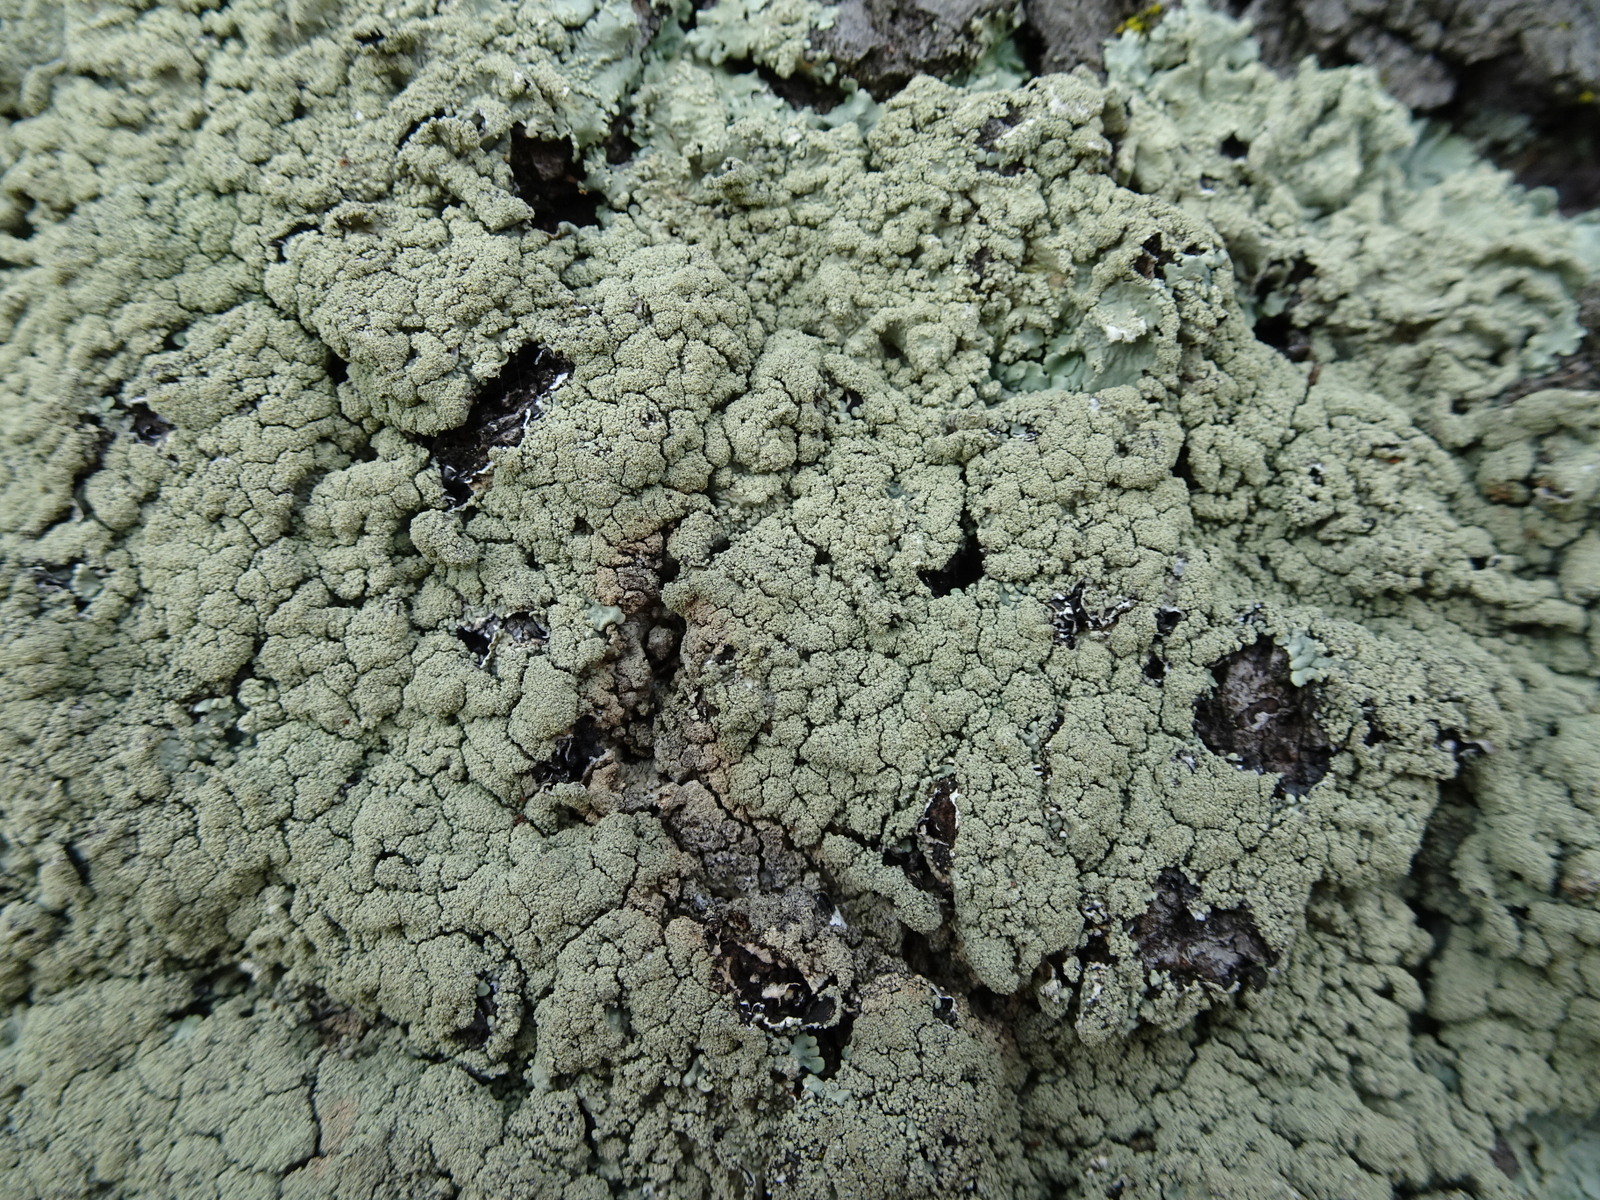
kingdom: Fungi
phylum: Ascomycota
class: Lecanoromycetes
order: Lecanorales
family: Parmeliaceae
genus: Flavoparmelia
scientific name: Flavoparmelia caperata
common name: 40-mile per hour lichen
